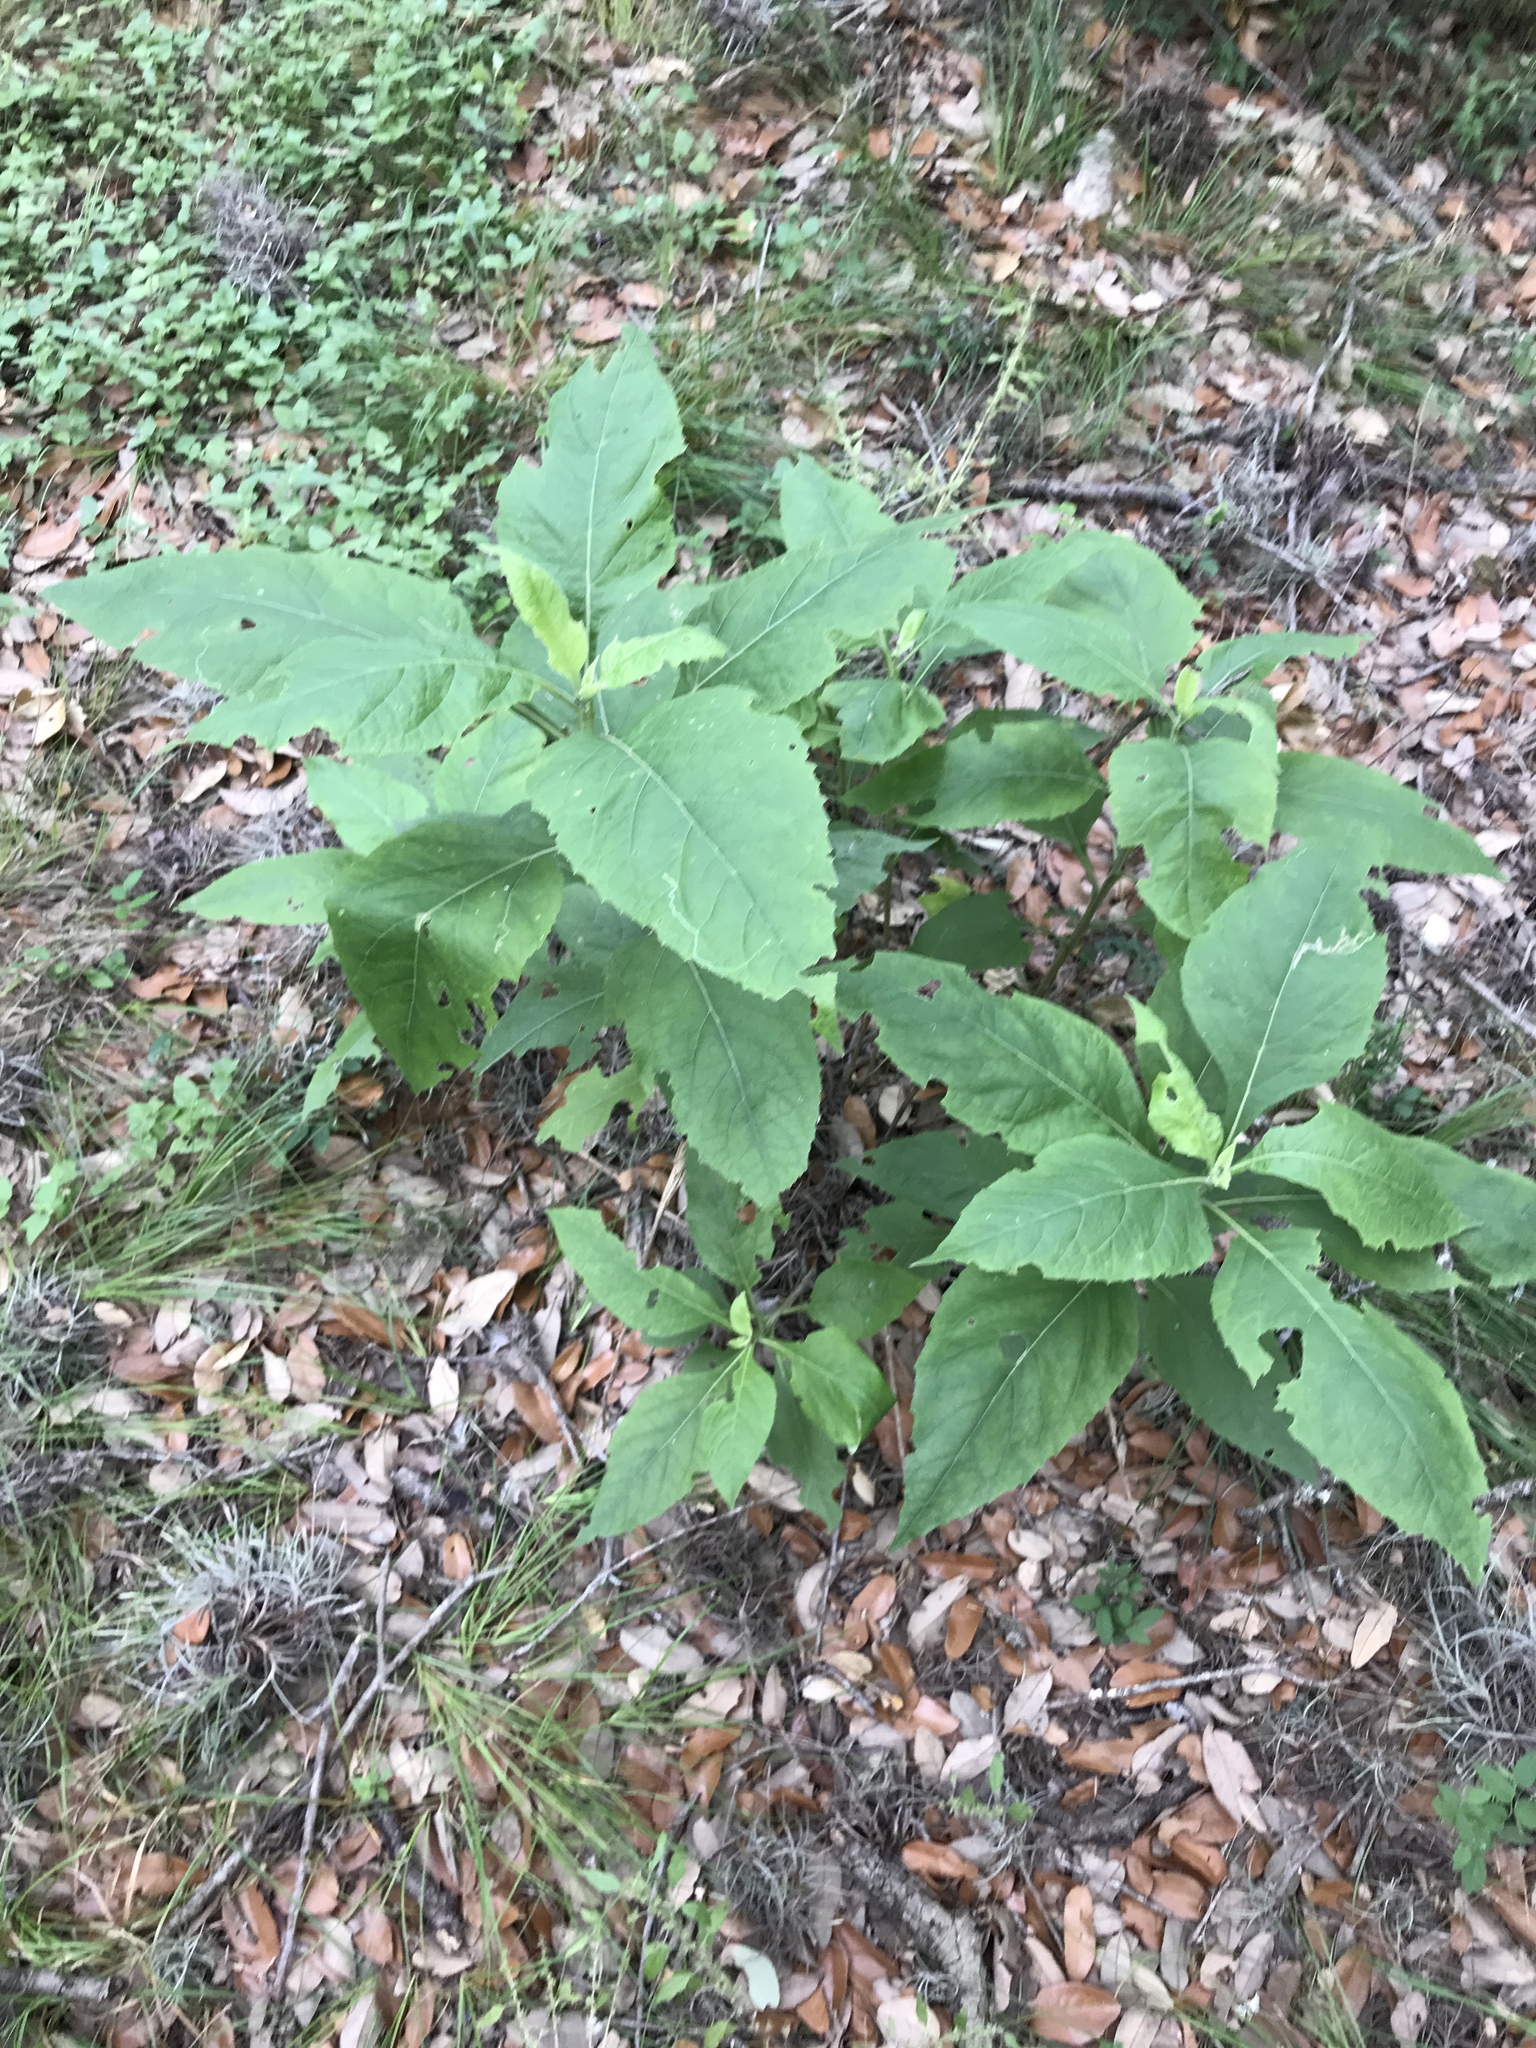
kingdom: Plantae
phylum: Tracheophyta
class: Magnoliopsida
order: Asterales
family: Asteraceae
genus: Verbesina
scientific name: Verbesina virginica
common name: Frostweed
